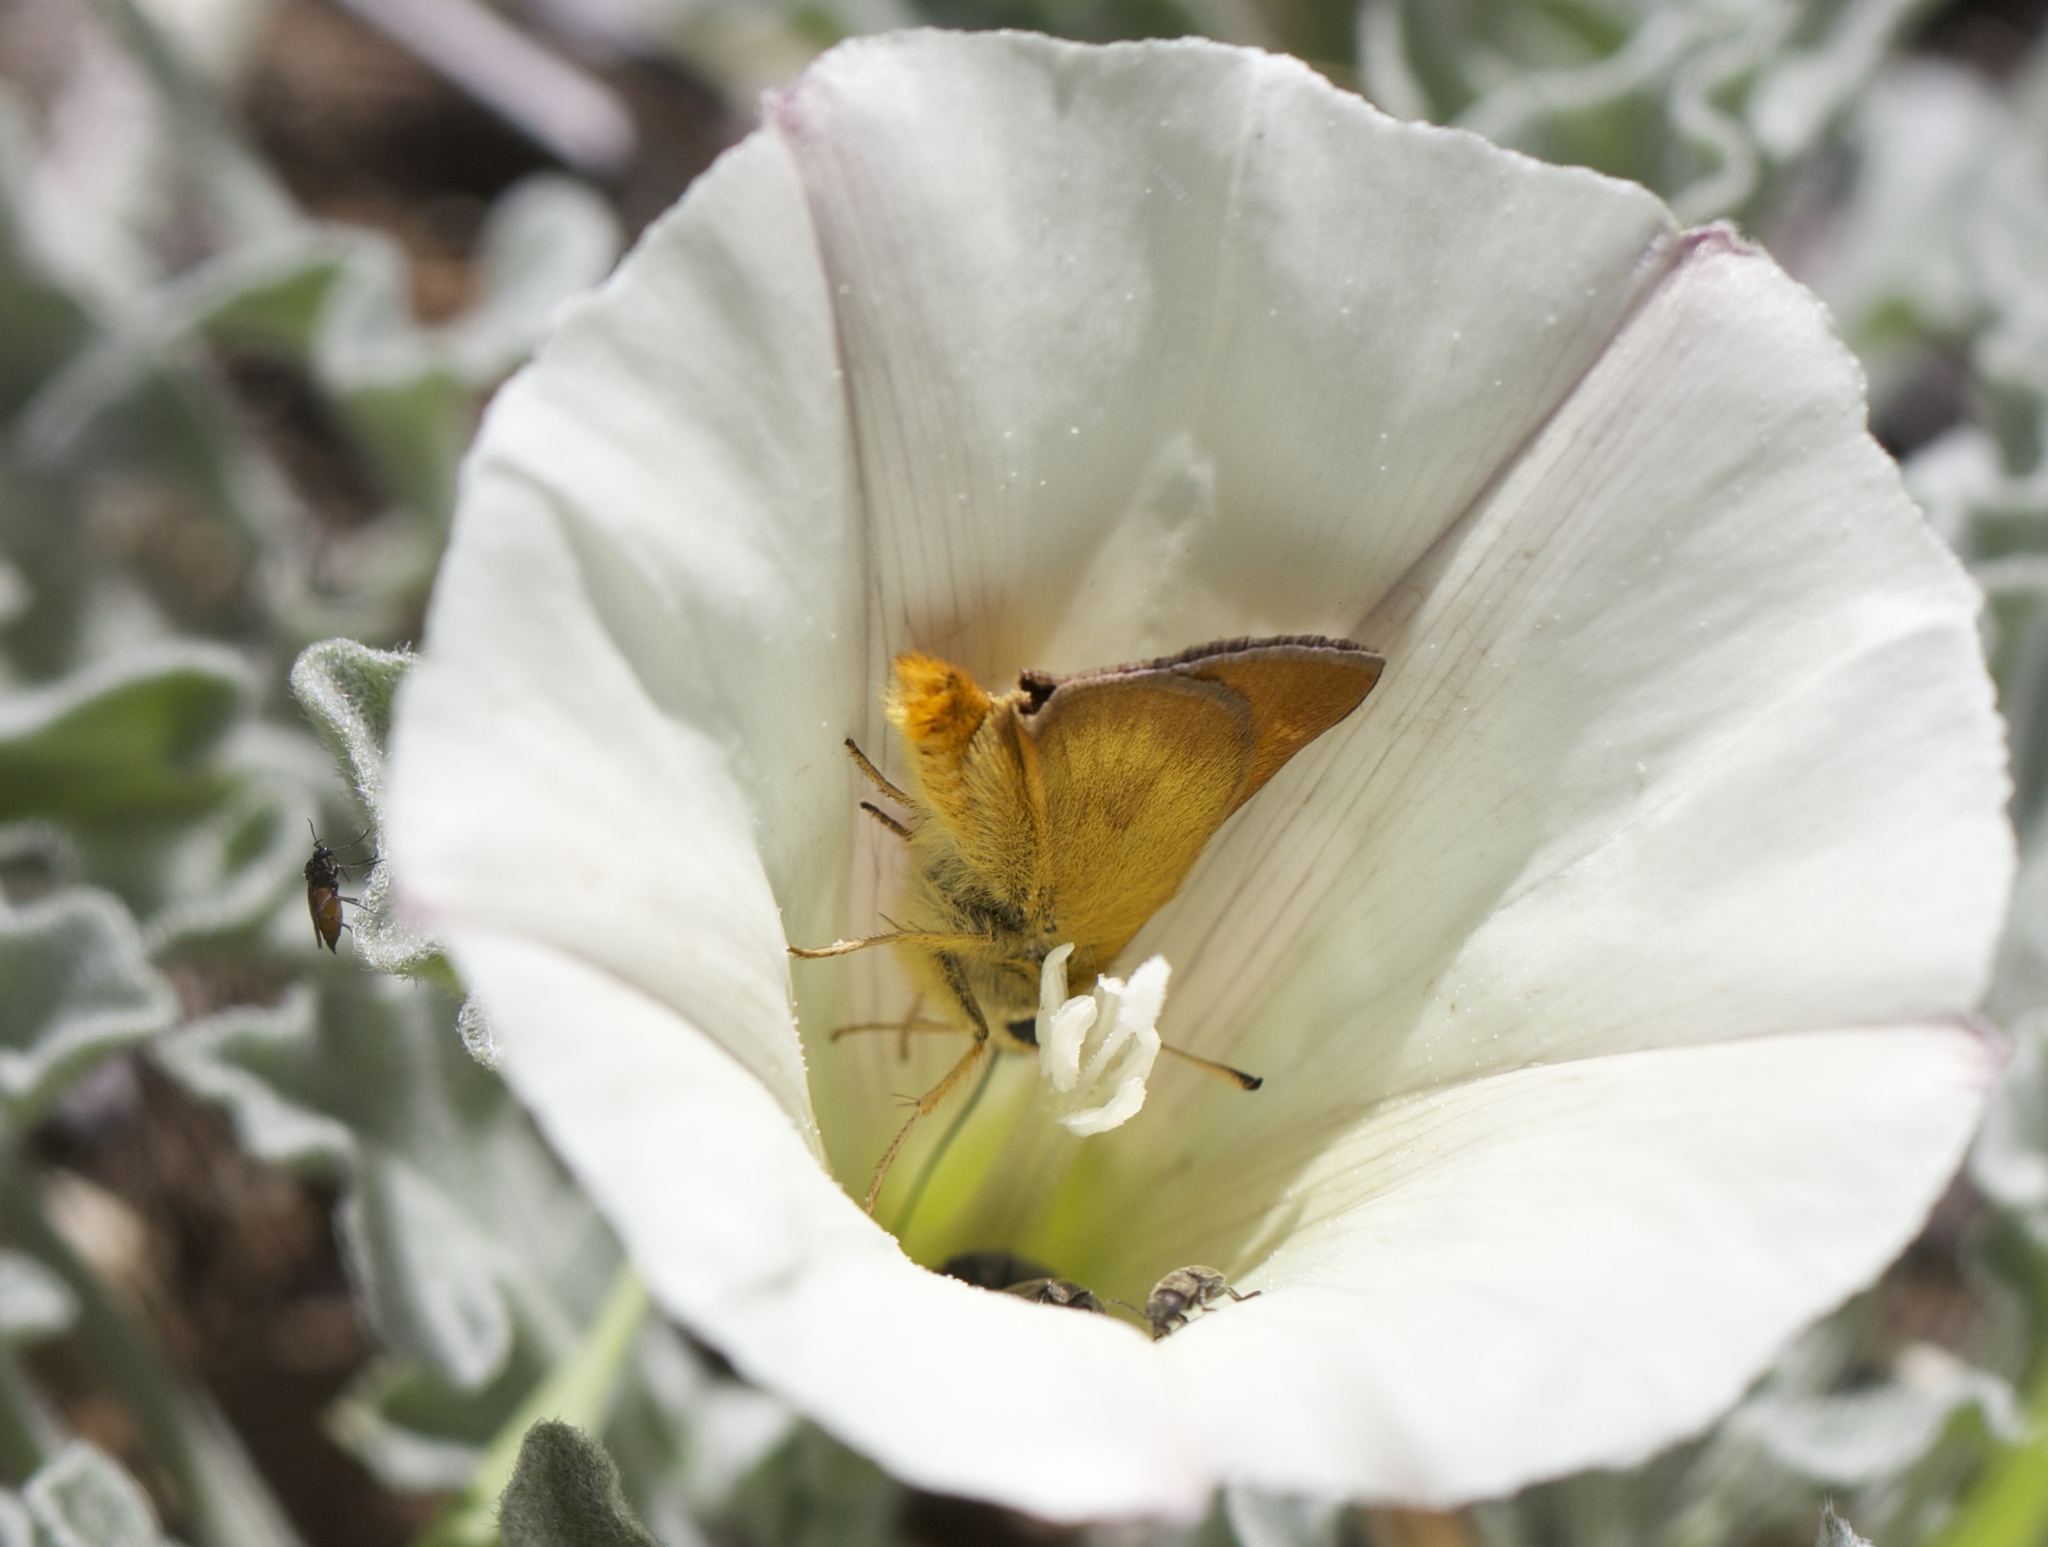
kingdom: Animalia
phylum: Arthropoda
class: Insecta
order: Lepidoptera
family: Hesperiidae
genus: Ochlodes
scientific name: Ochlodes agricola
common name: Rural skipper
